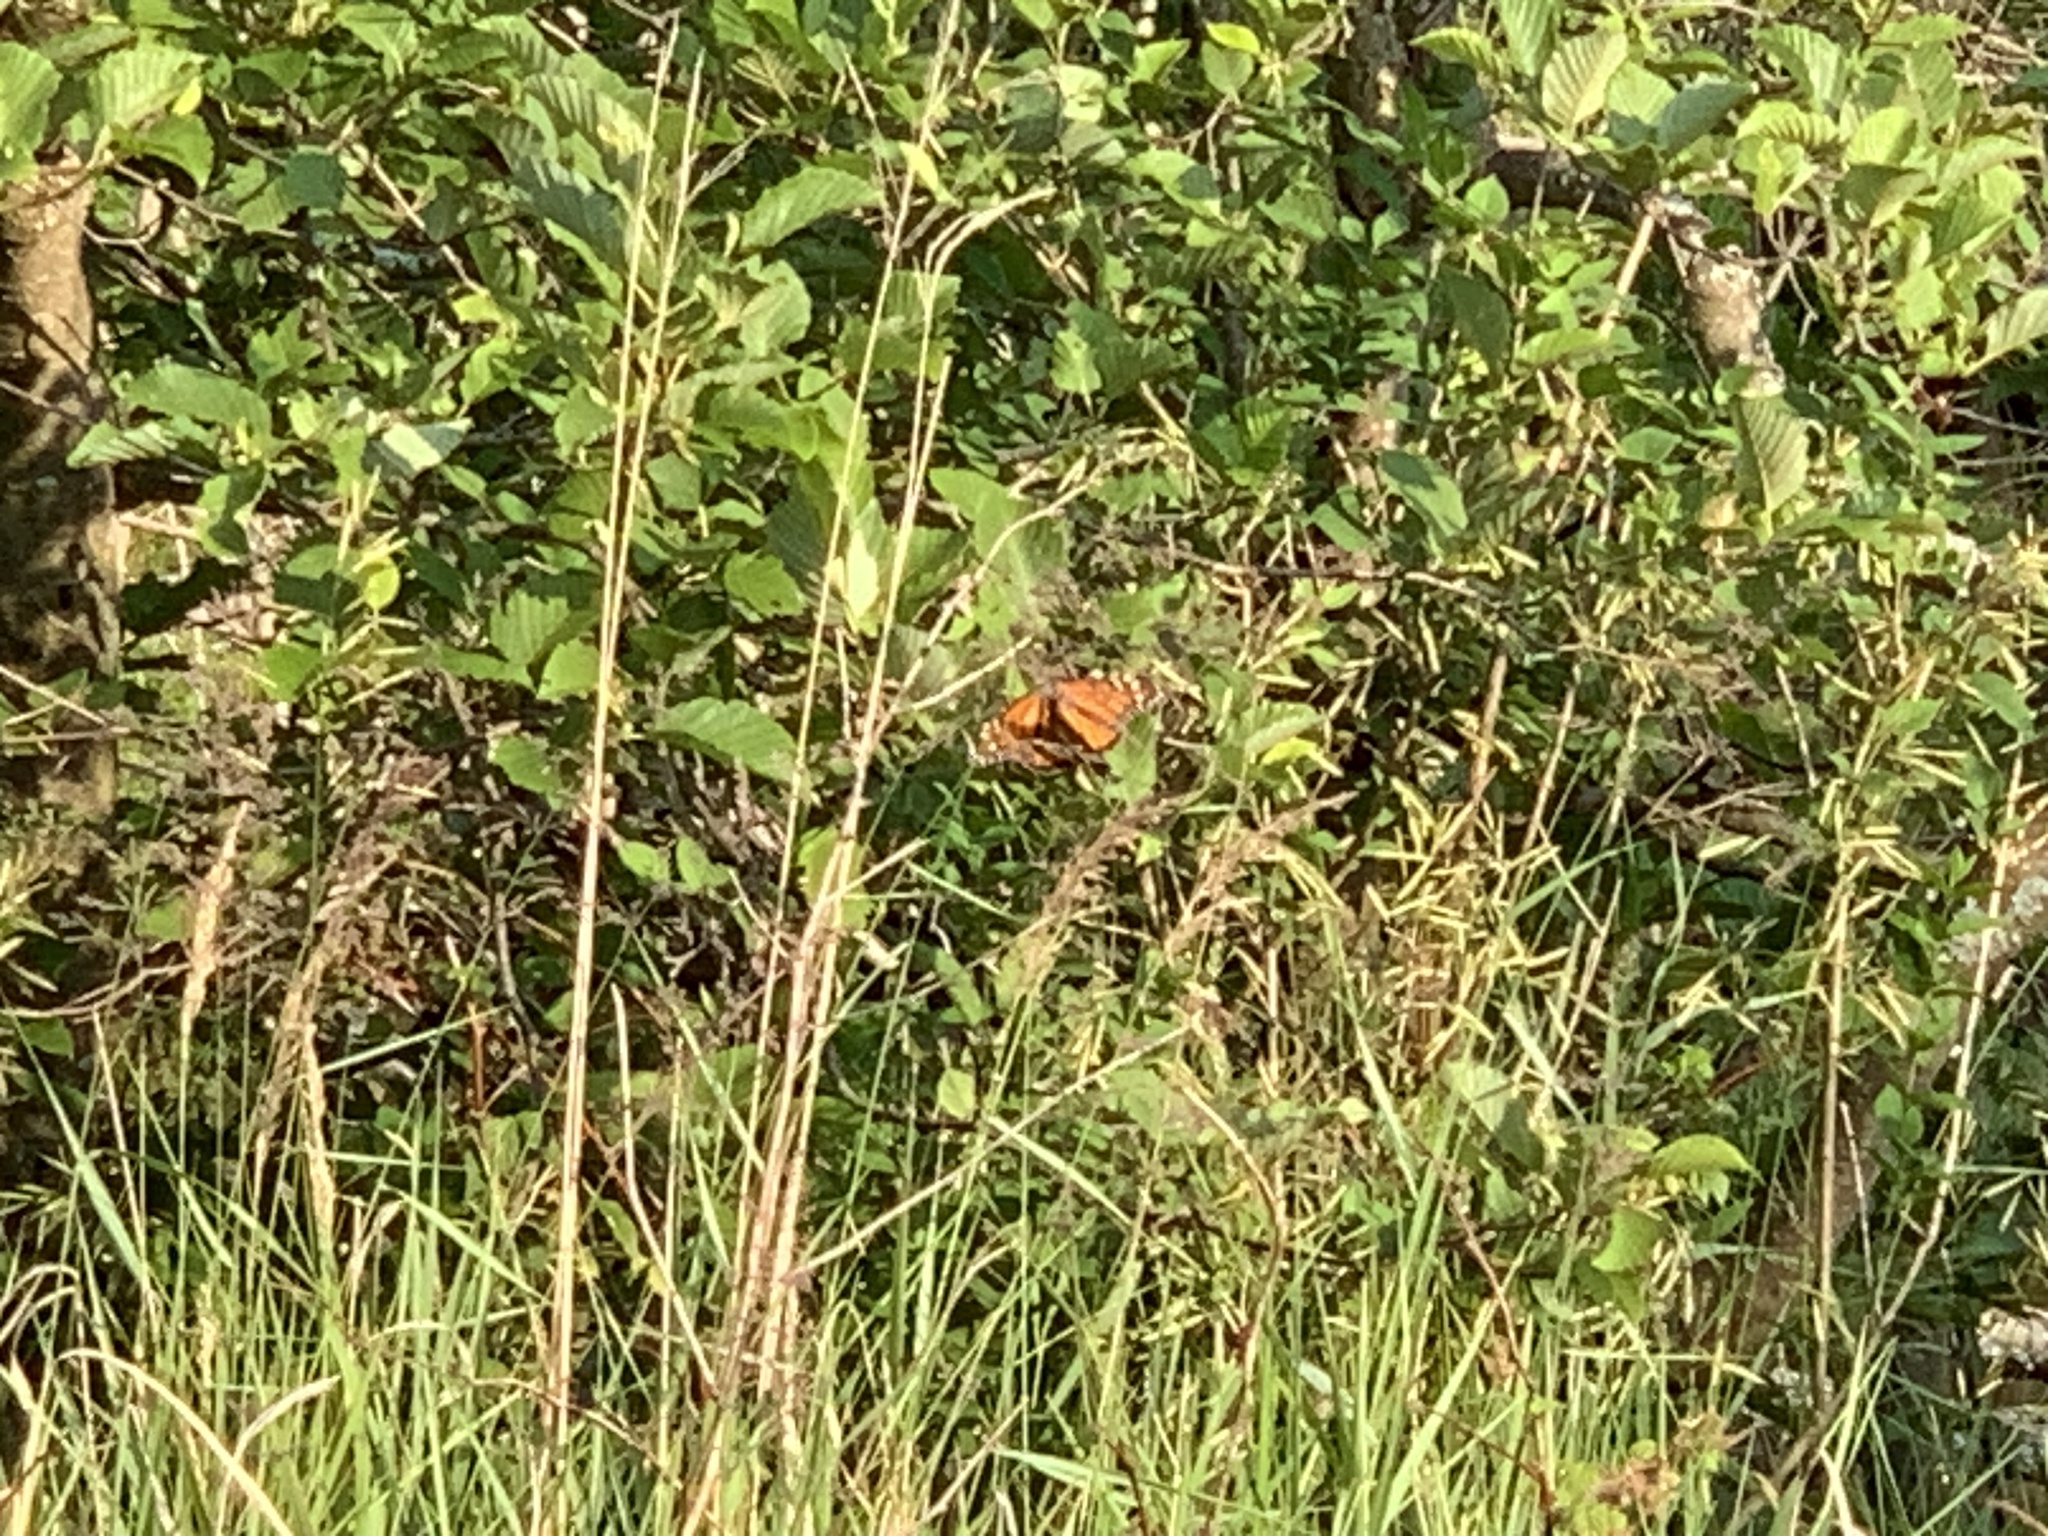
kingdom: Animalia
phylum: Arthropoda
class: Insecta
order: Lepidoptera
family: Nymphalidae
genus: Danaus
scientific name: Danaus plexippus
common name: Monarch
